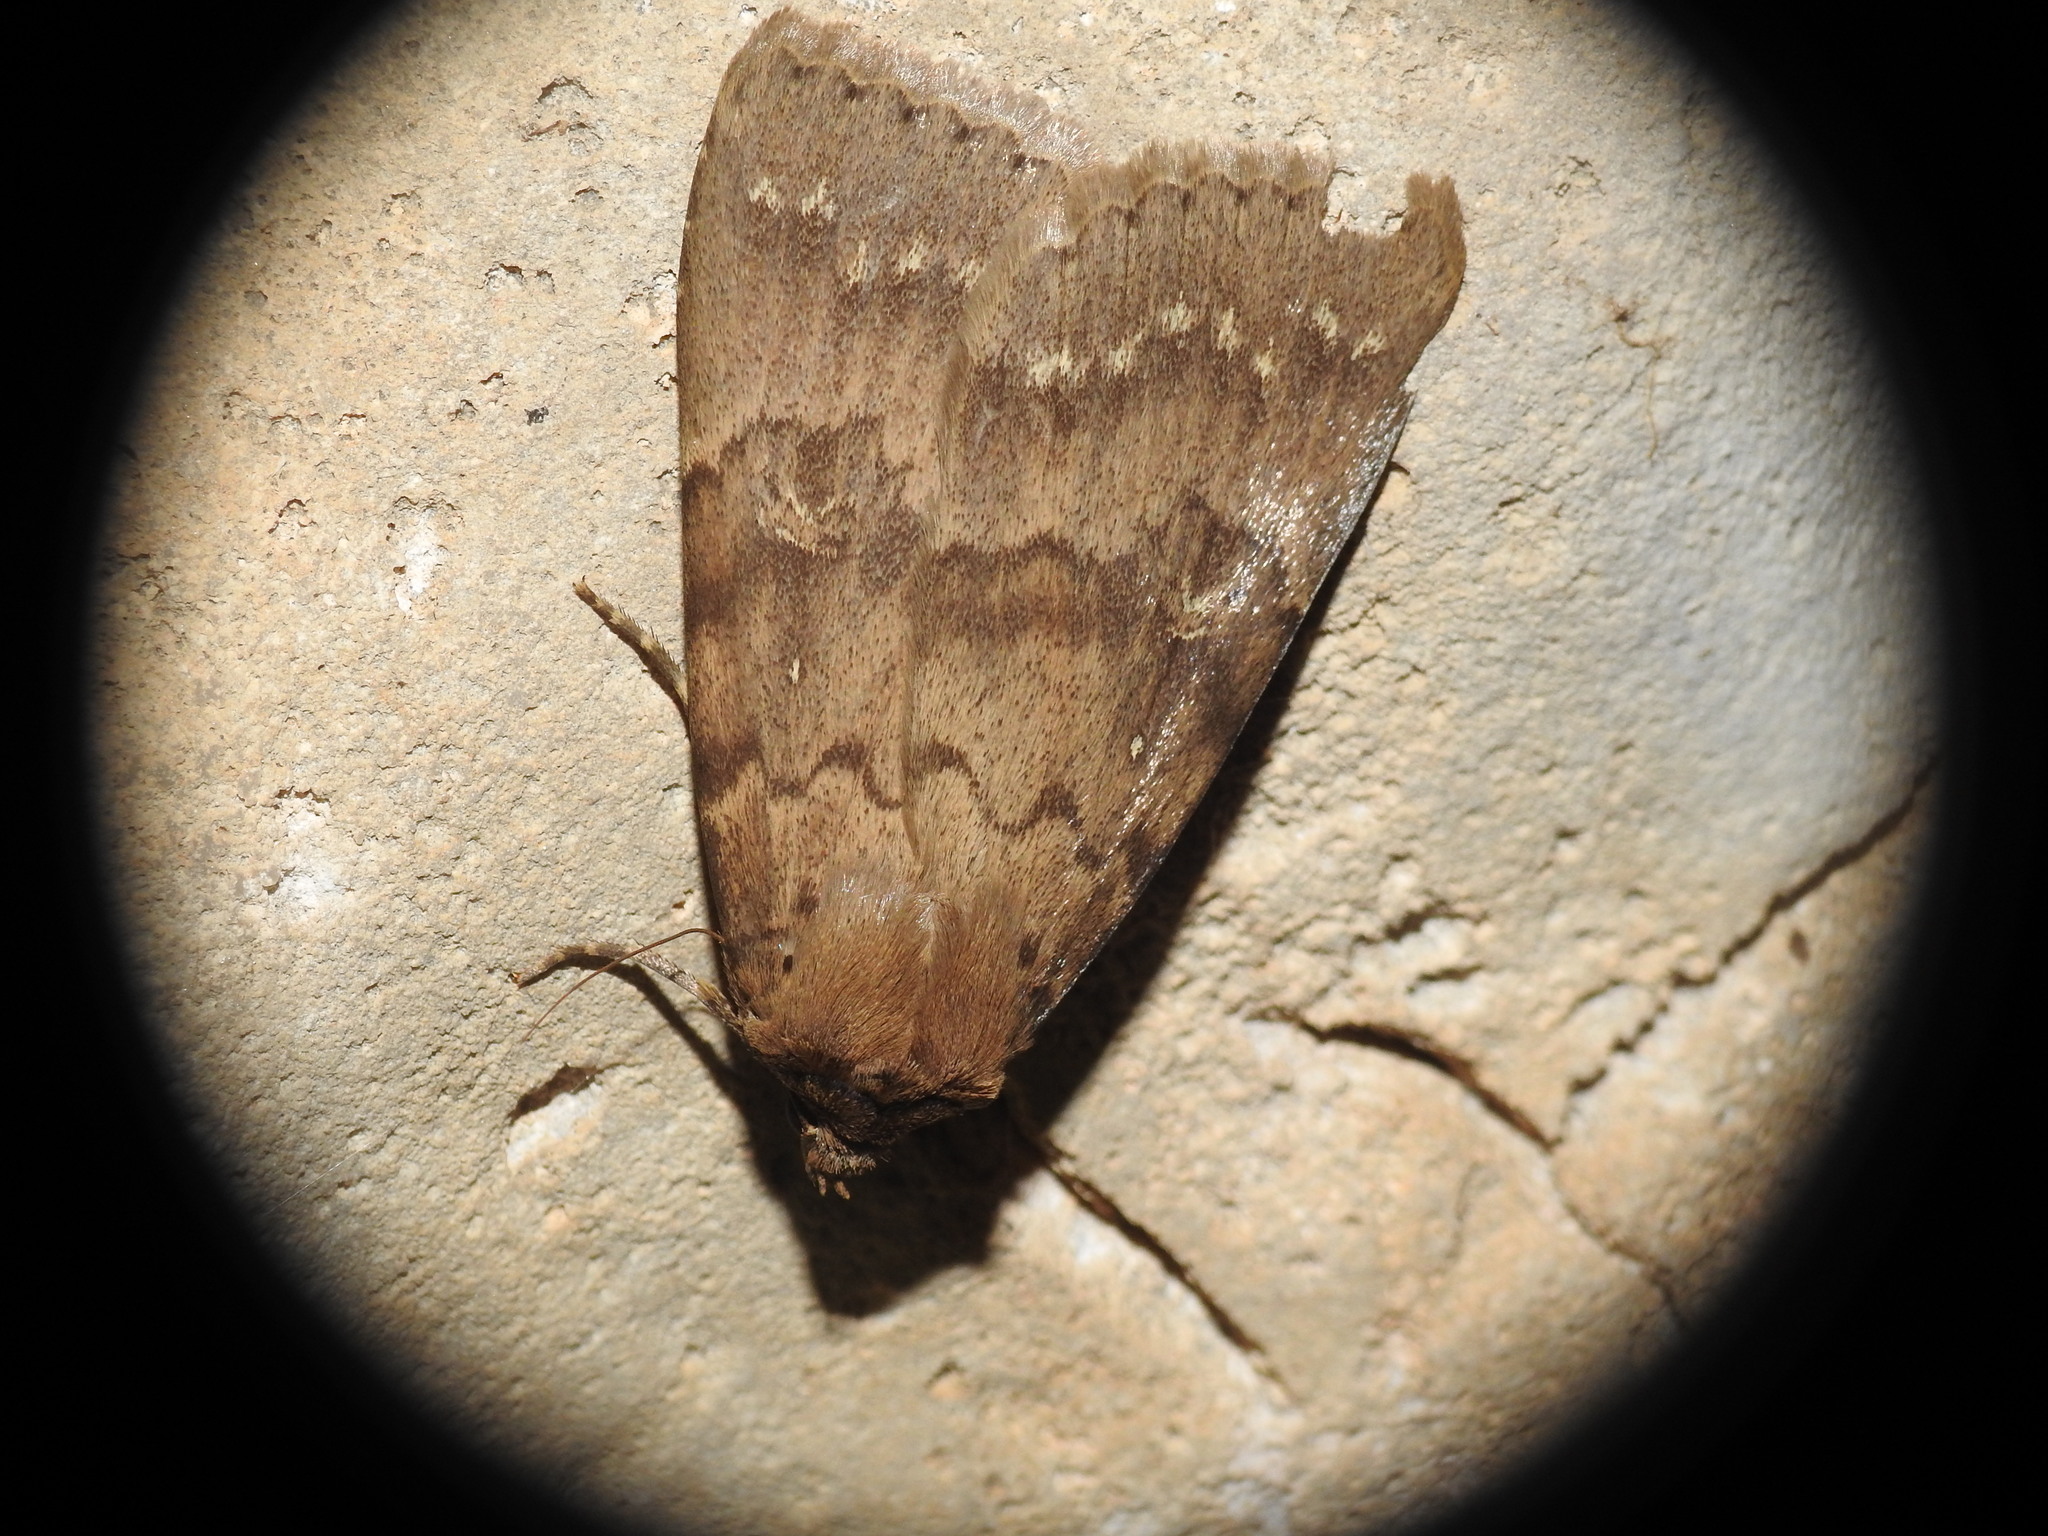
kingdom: Animalia
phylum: Arthropoda
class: Insecta
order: Lepidoptera
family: Erebidae
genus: Apopestes
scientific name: Apopestes spectrum
